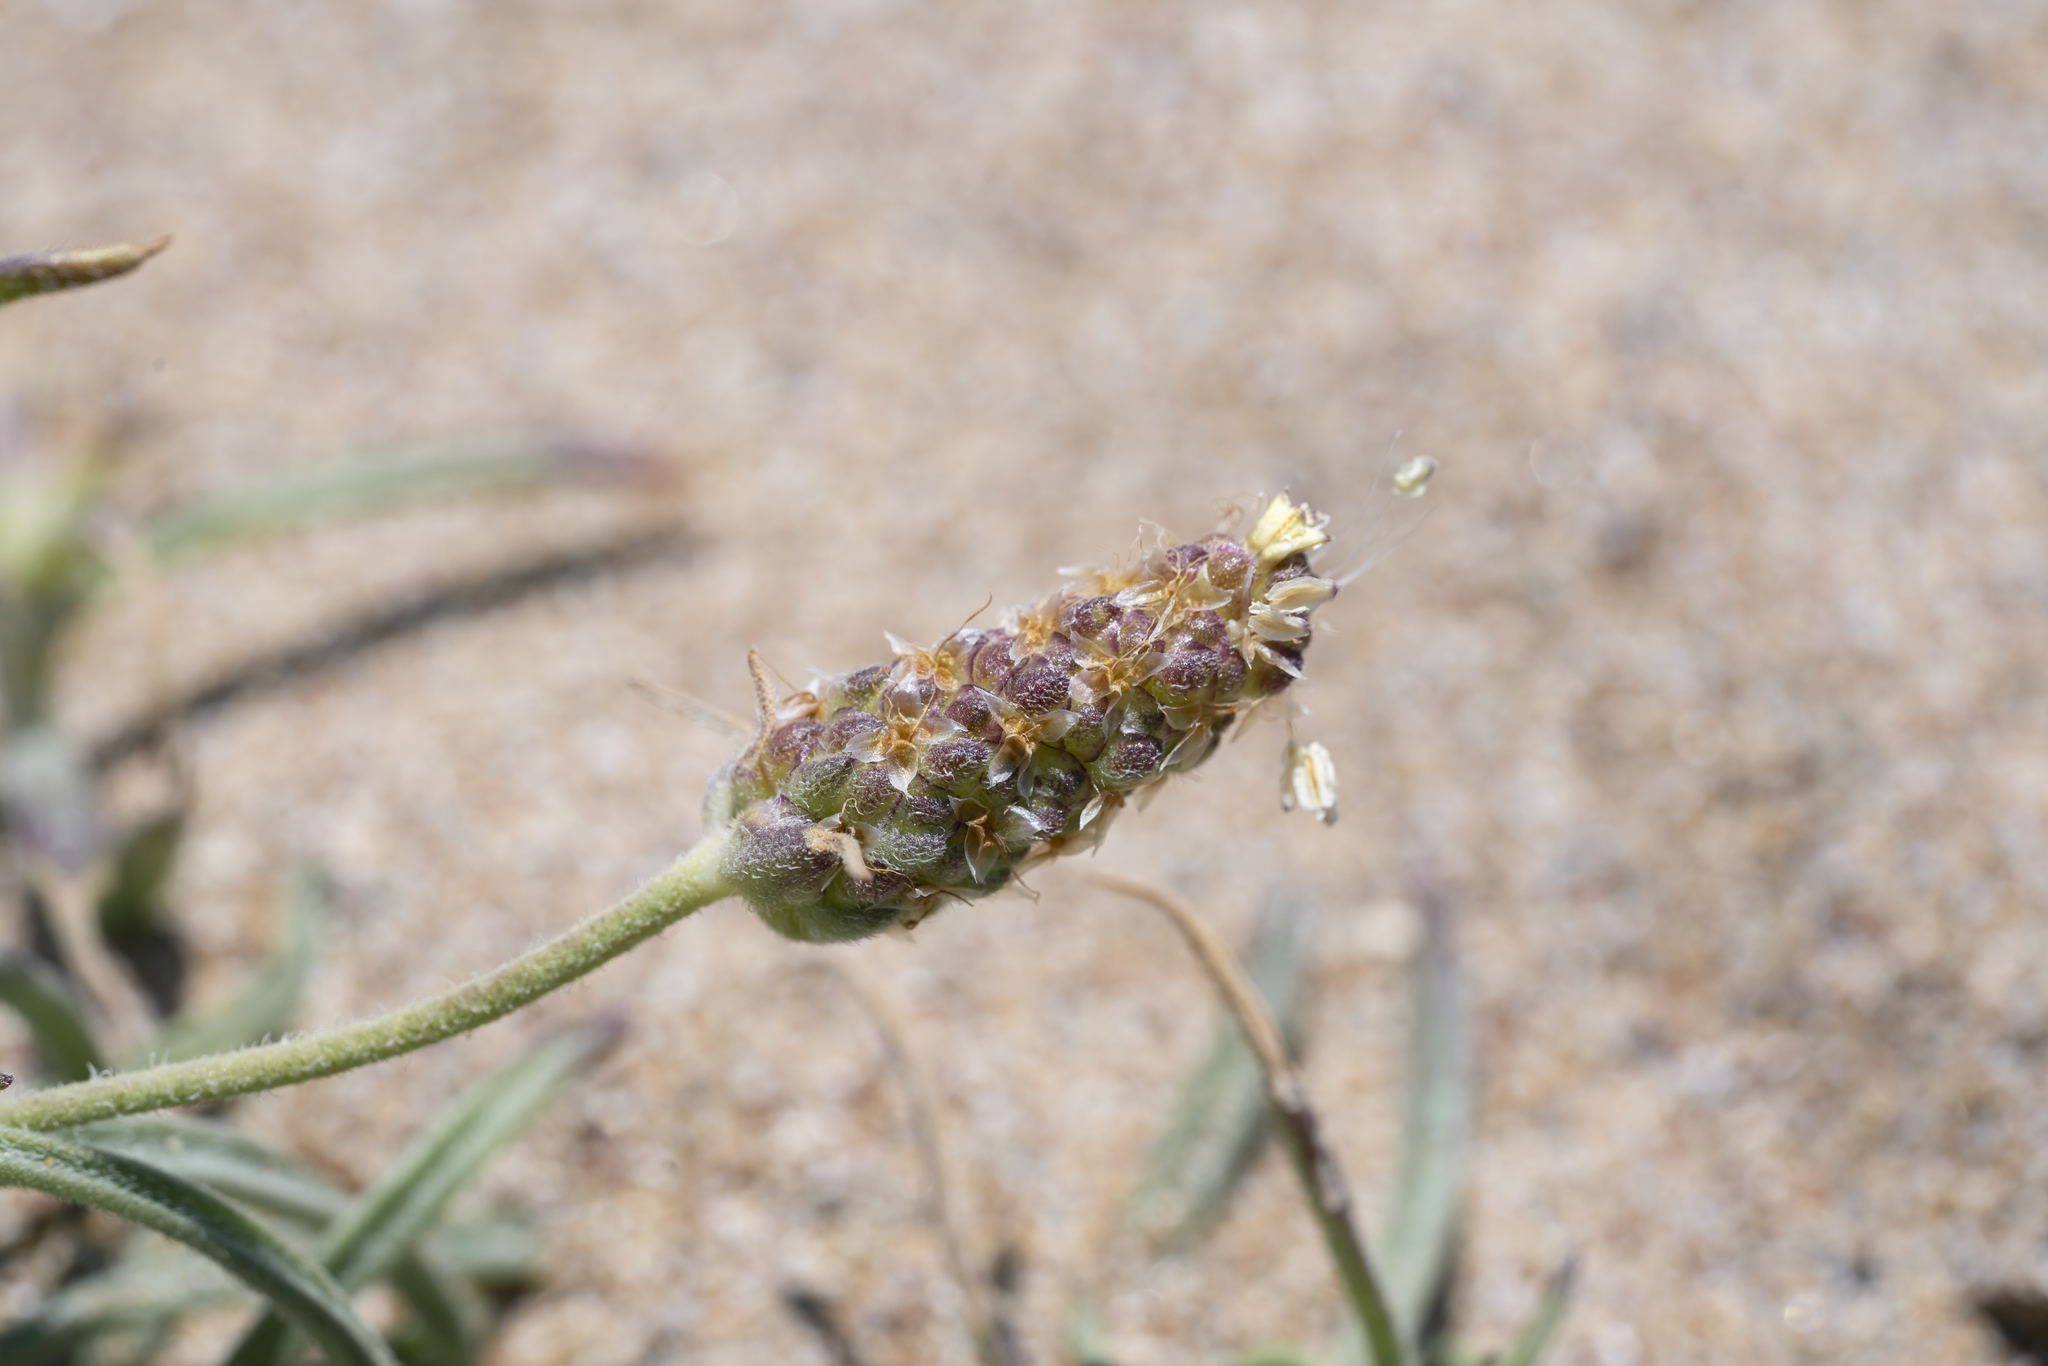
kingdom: Plantae
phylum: Tracheophyta
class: Magnoliopsida
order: Lamiales
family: Plantaginaceae
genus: Plantago
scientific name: Plantago arenaria
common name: Branched plantain
